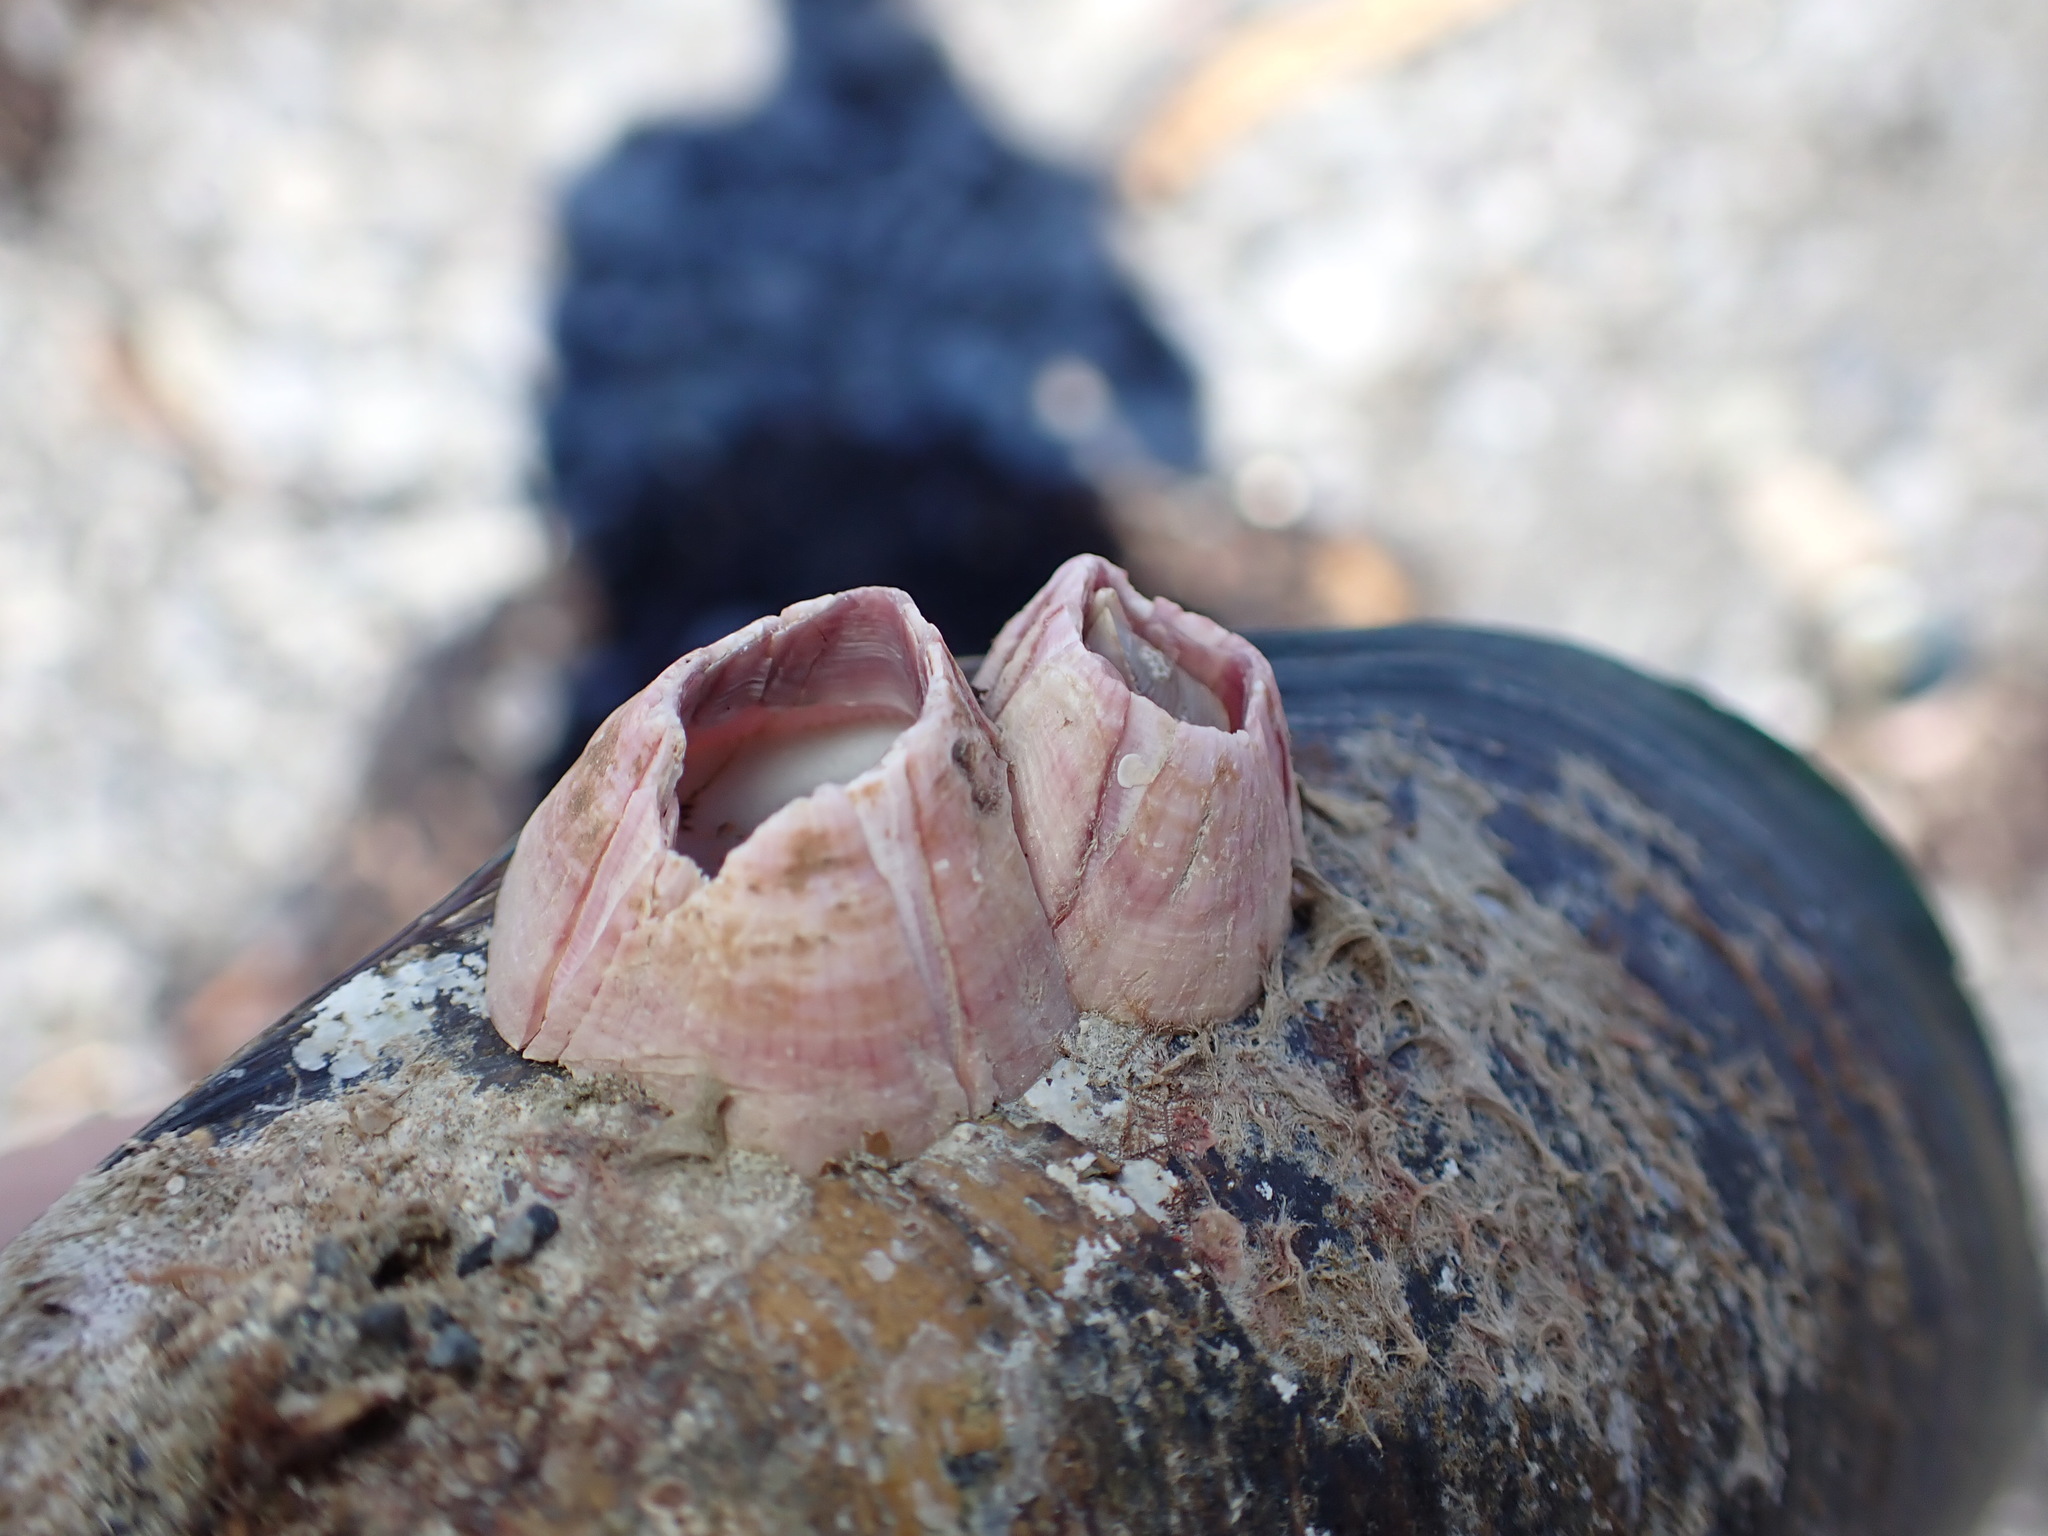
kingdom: Animalia
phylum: Arthropoda
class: Maxillopoda
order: Sessilia
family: Balanidae
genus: Notomegabalanus
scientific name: Notomegabalanus decorus
